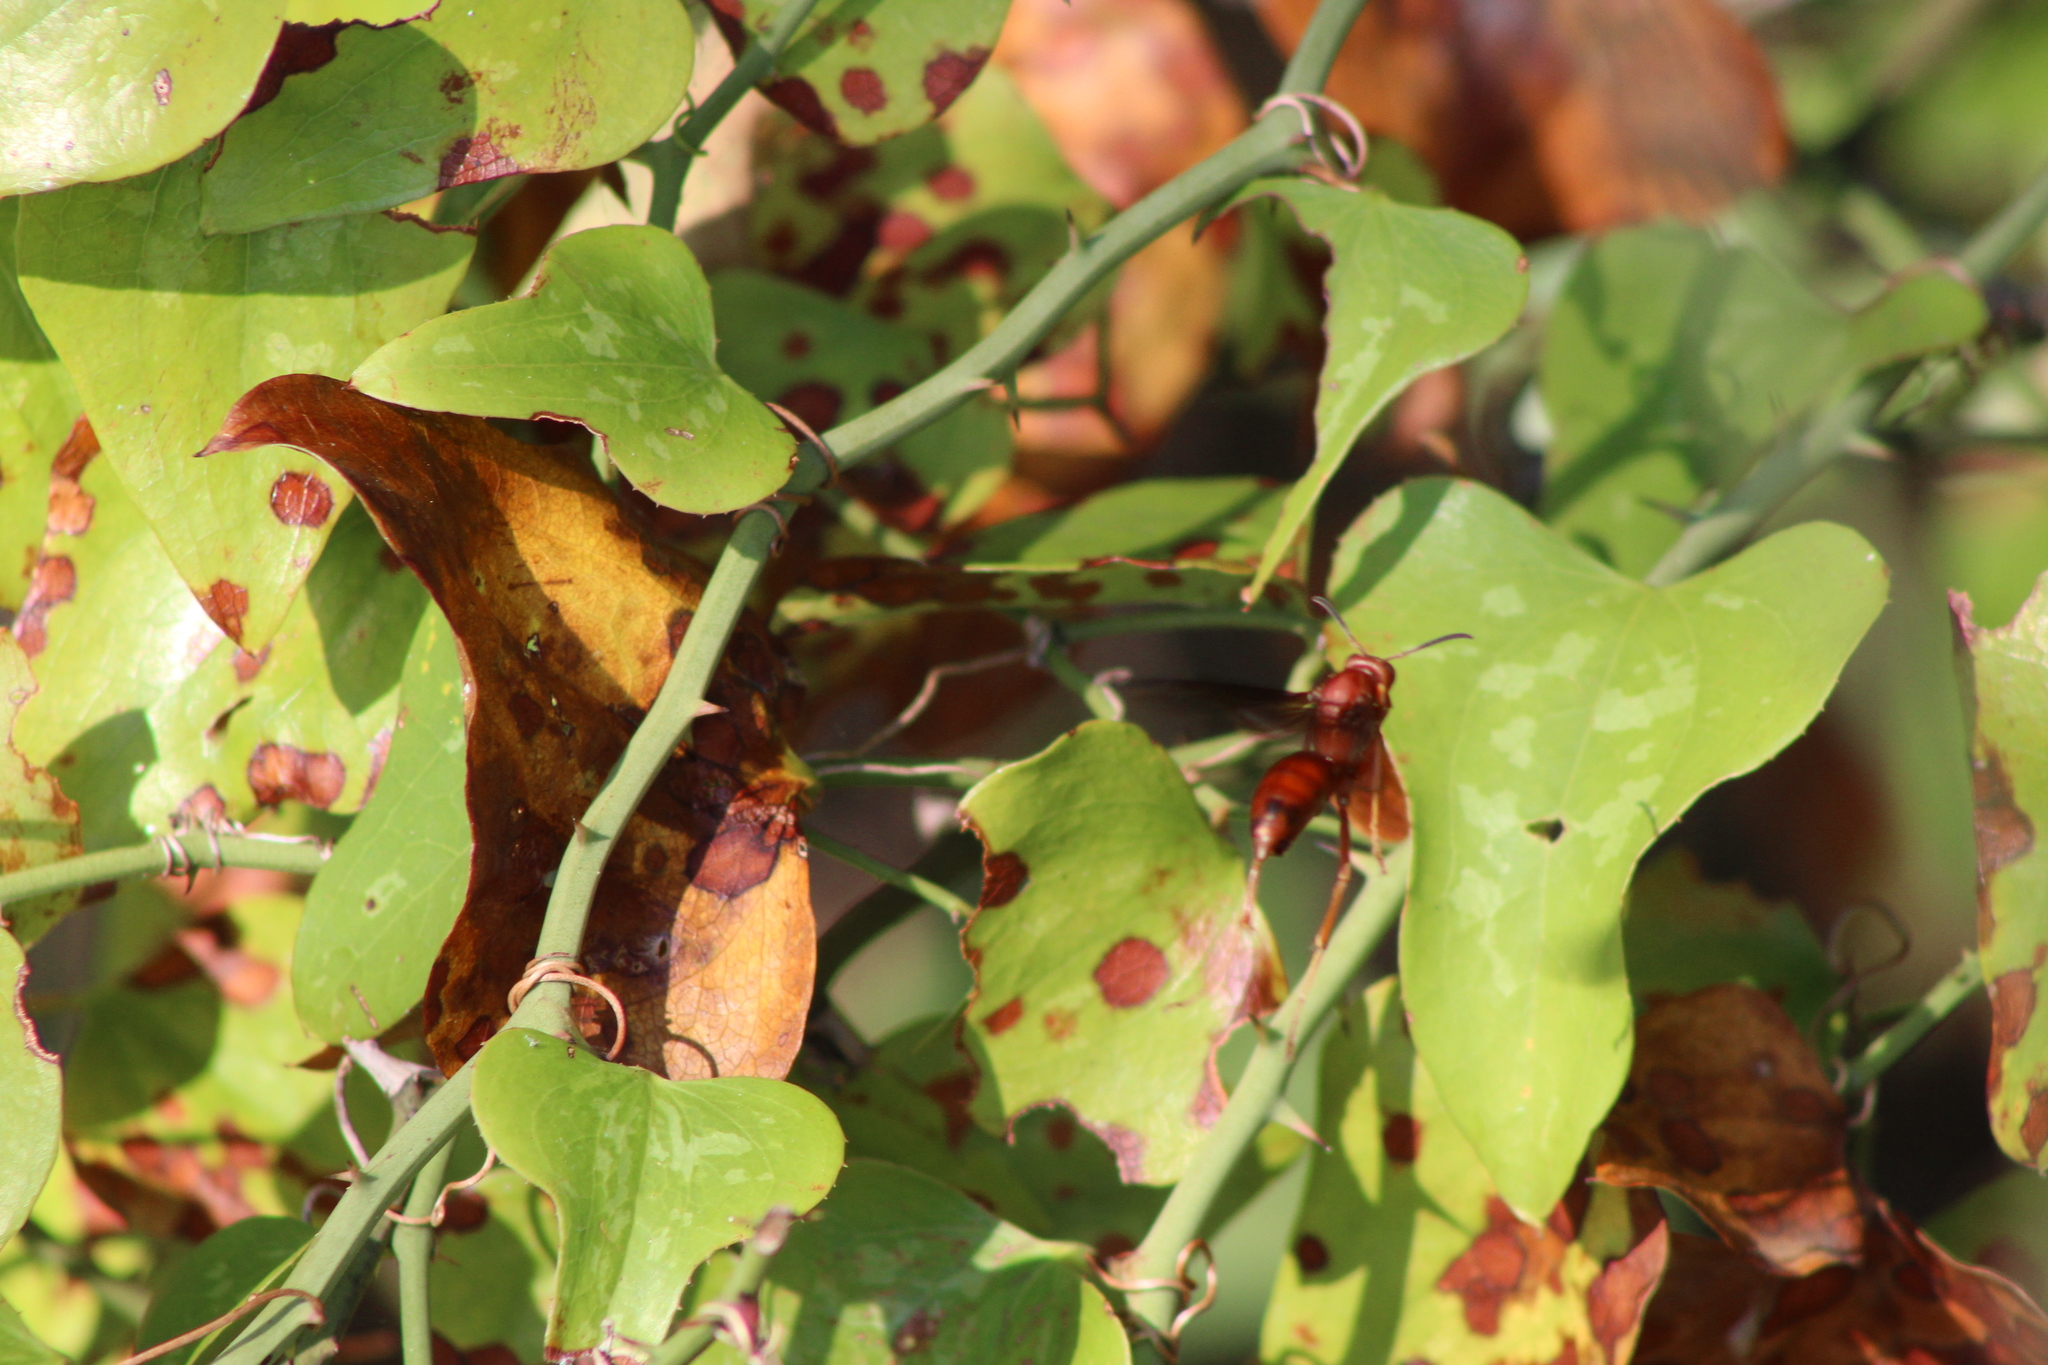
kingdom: Animalia
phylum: Arthropoda
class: Insecta
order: Hymenoptera
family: Vespidae
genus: Fuscopolistes
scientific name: Fuscopolistes
